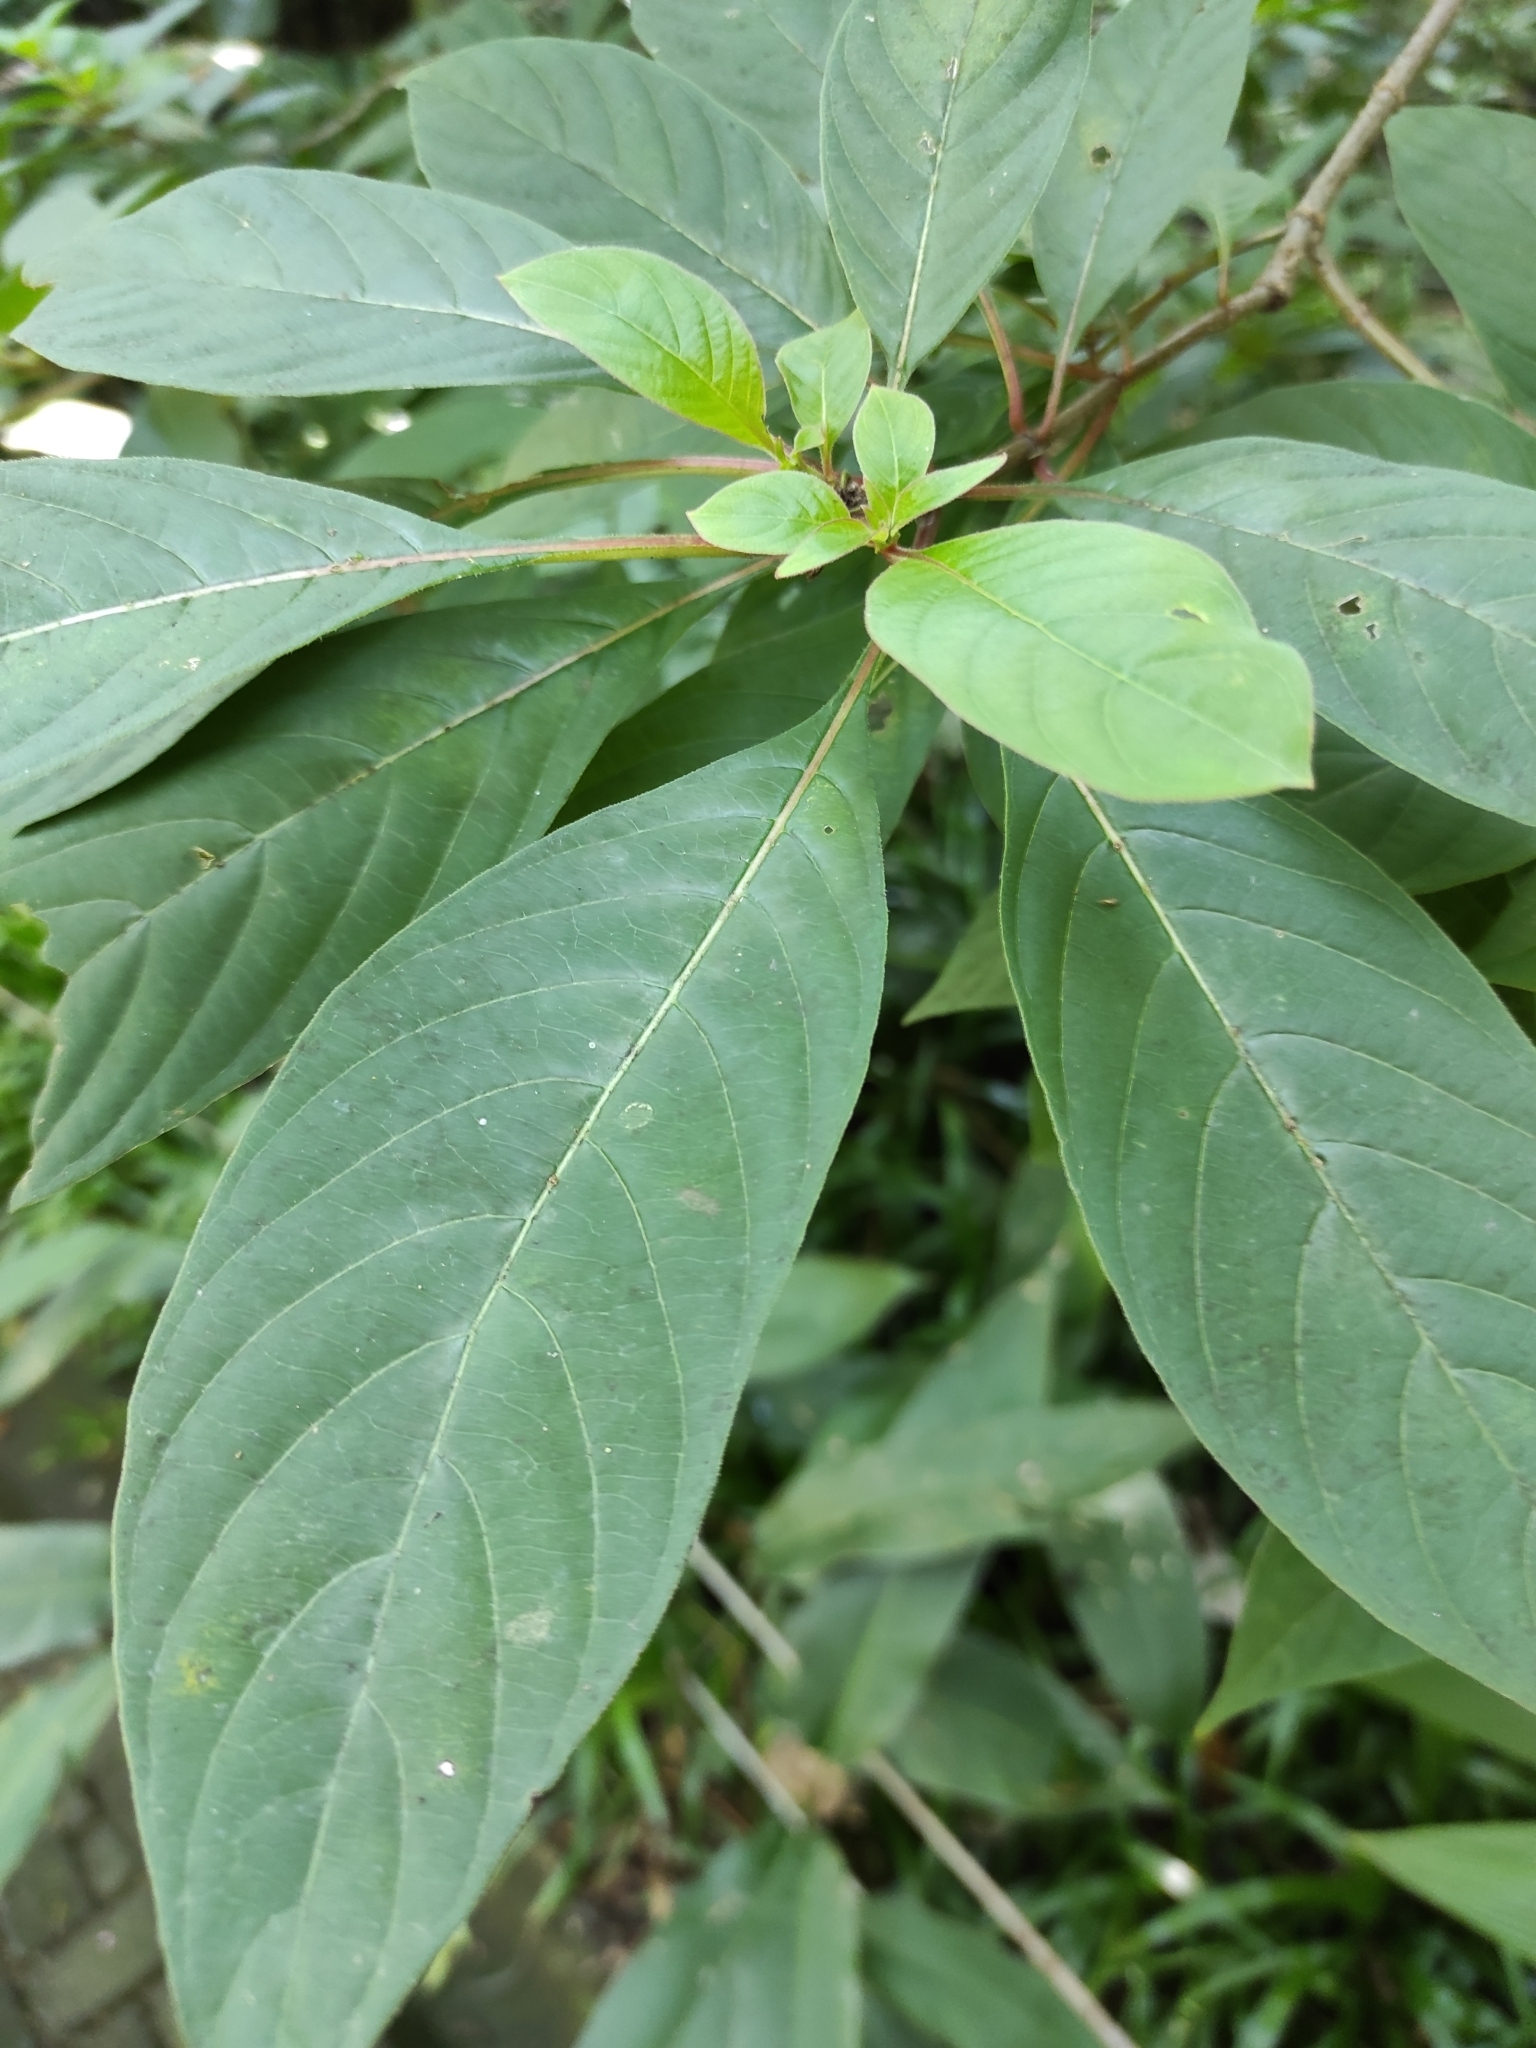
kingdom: Plantae
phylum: Tracheophyta
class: Magnoliopsida
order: Gentianales
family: Rubiaceae
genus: Hamelia
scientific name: Hamelia patens
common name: Redhead
